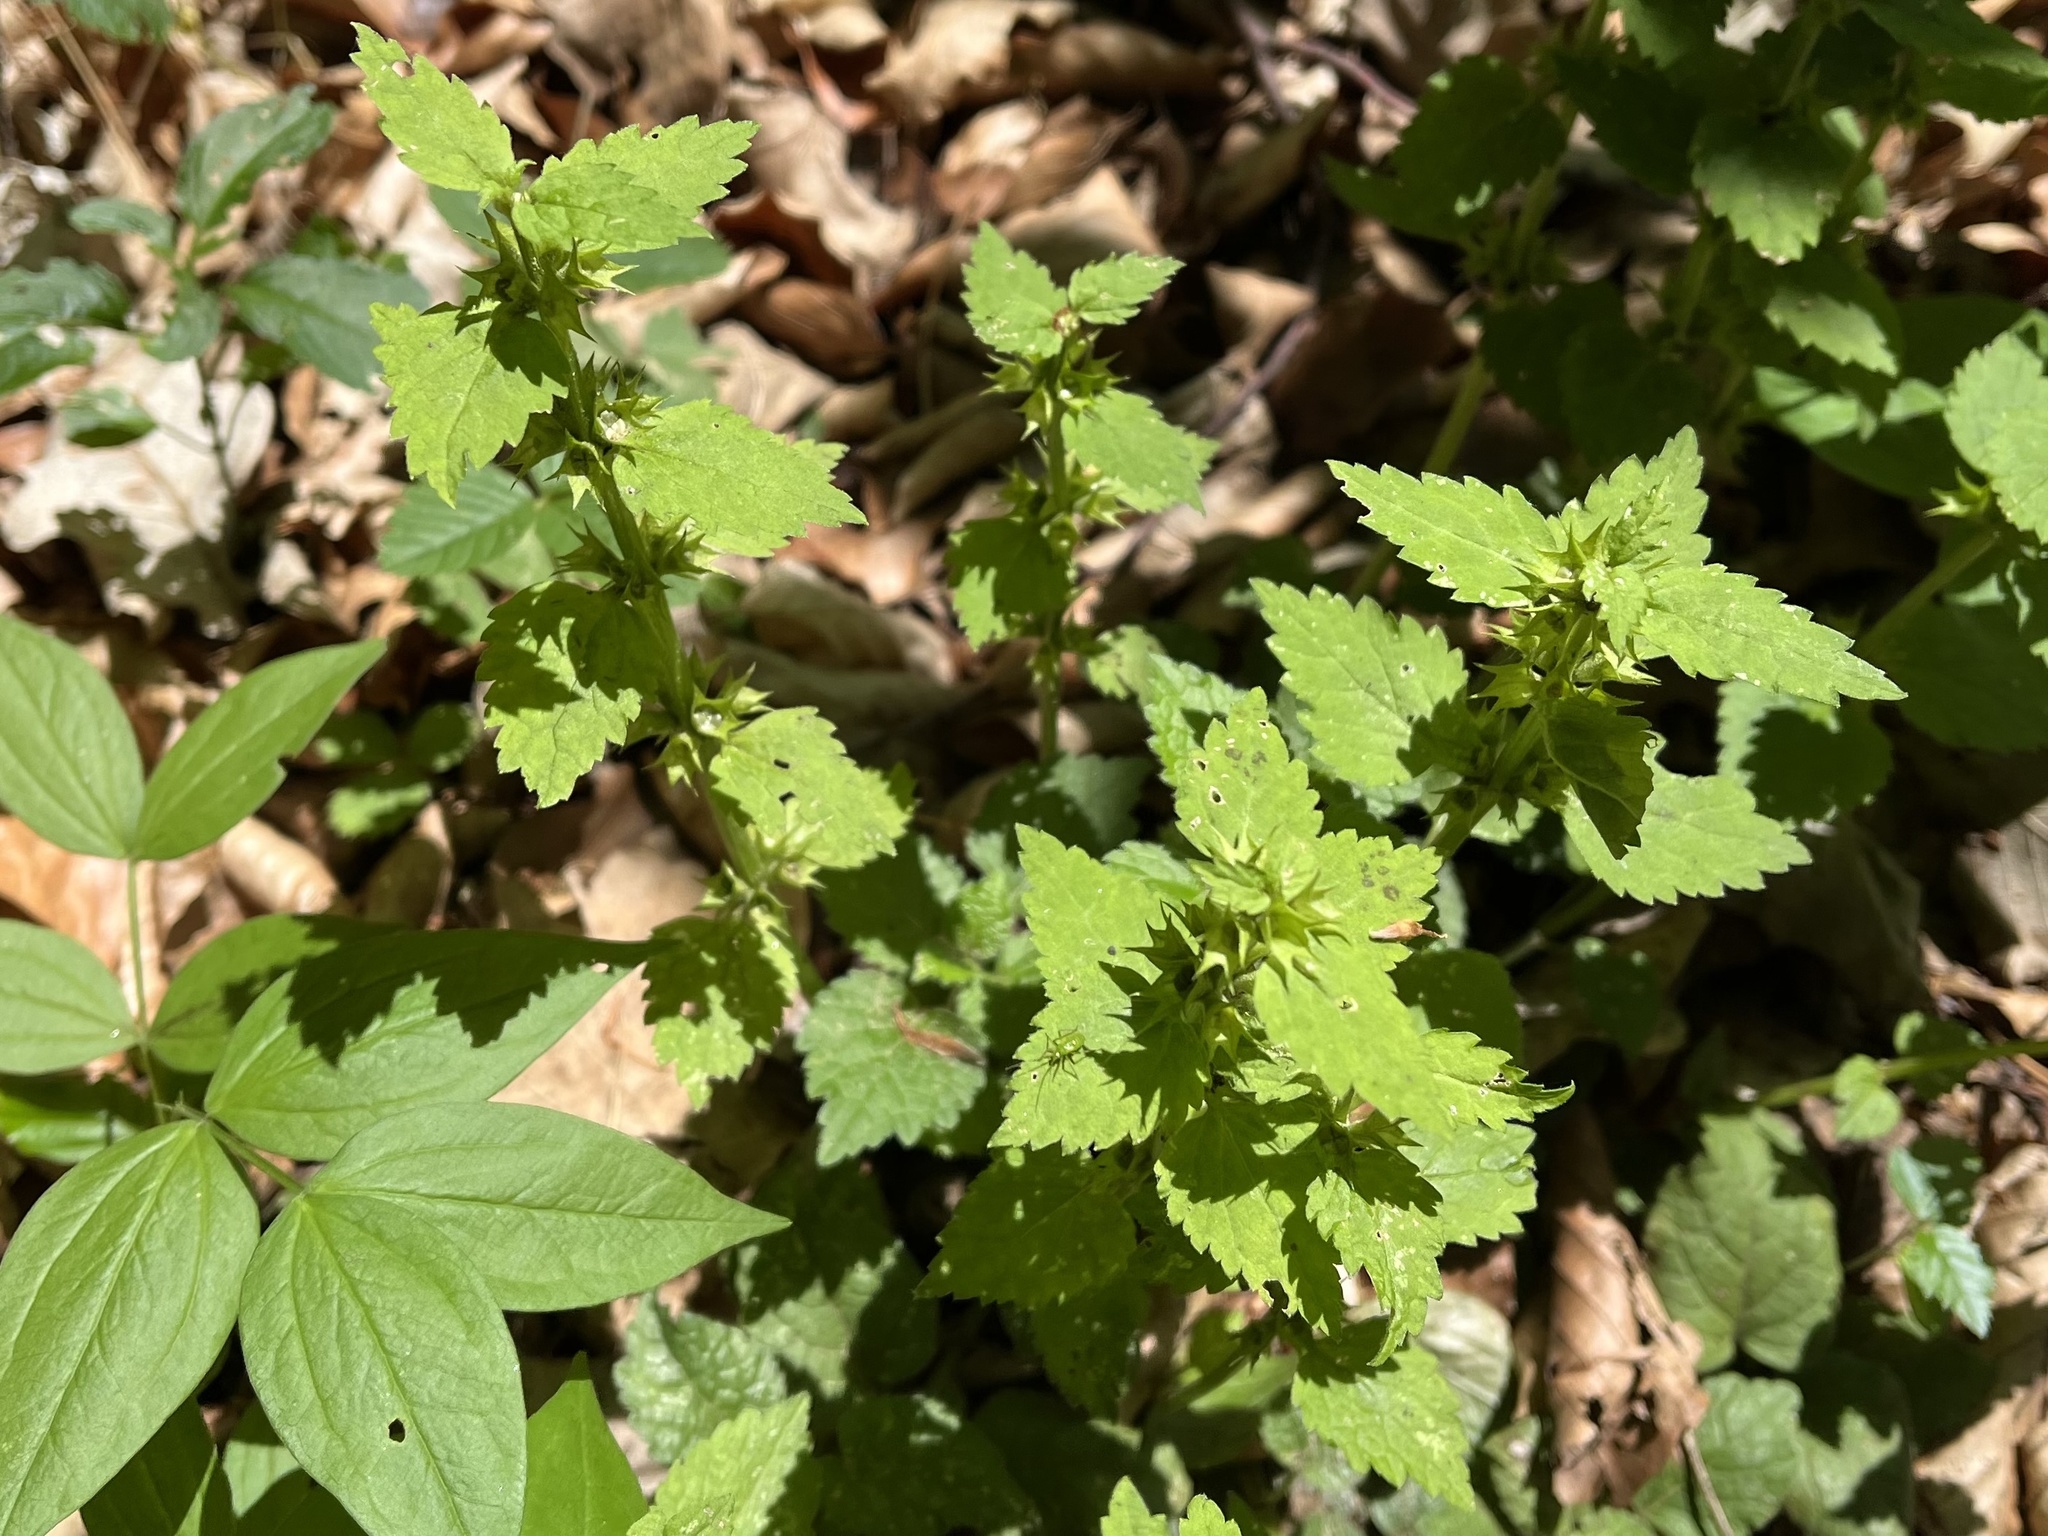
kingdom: Plantae
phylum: Tracheophyta
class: Magnoliopsida
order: Lamiales
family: Lamiaceae
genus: Lamium
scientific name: Lamium galeobdolon
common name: Yellow archangel
